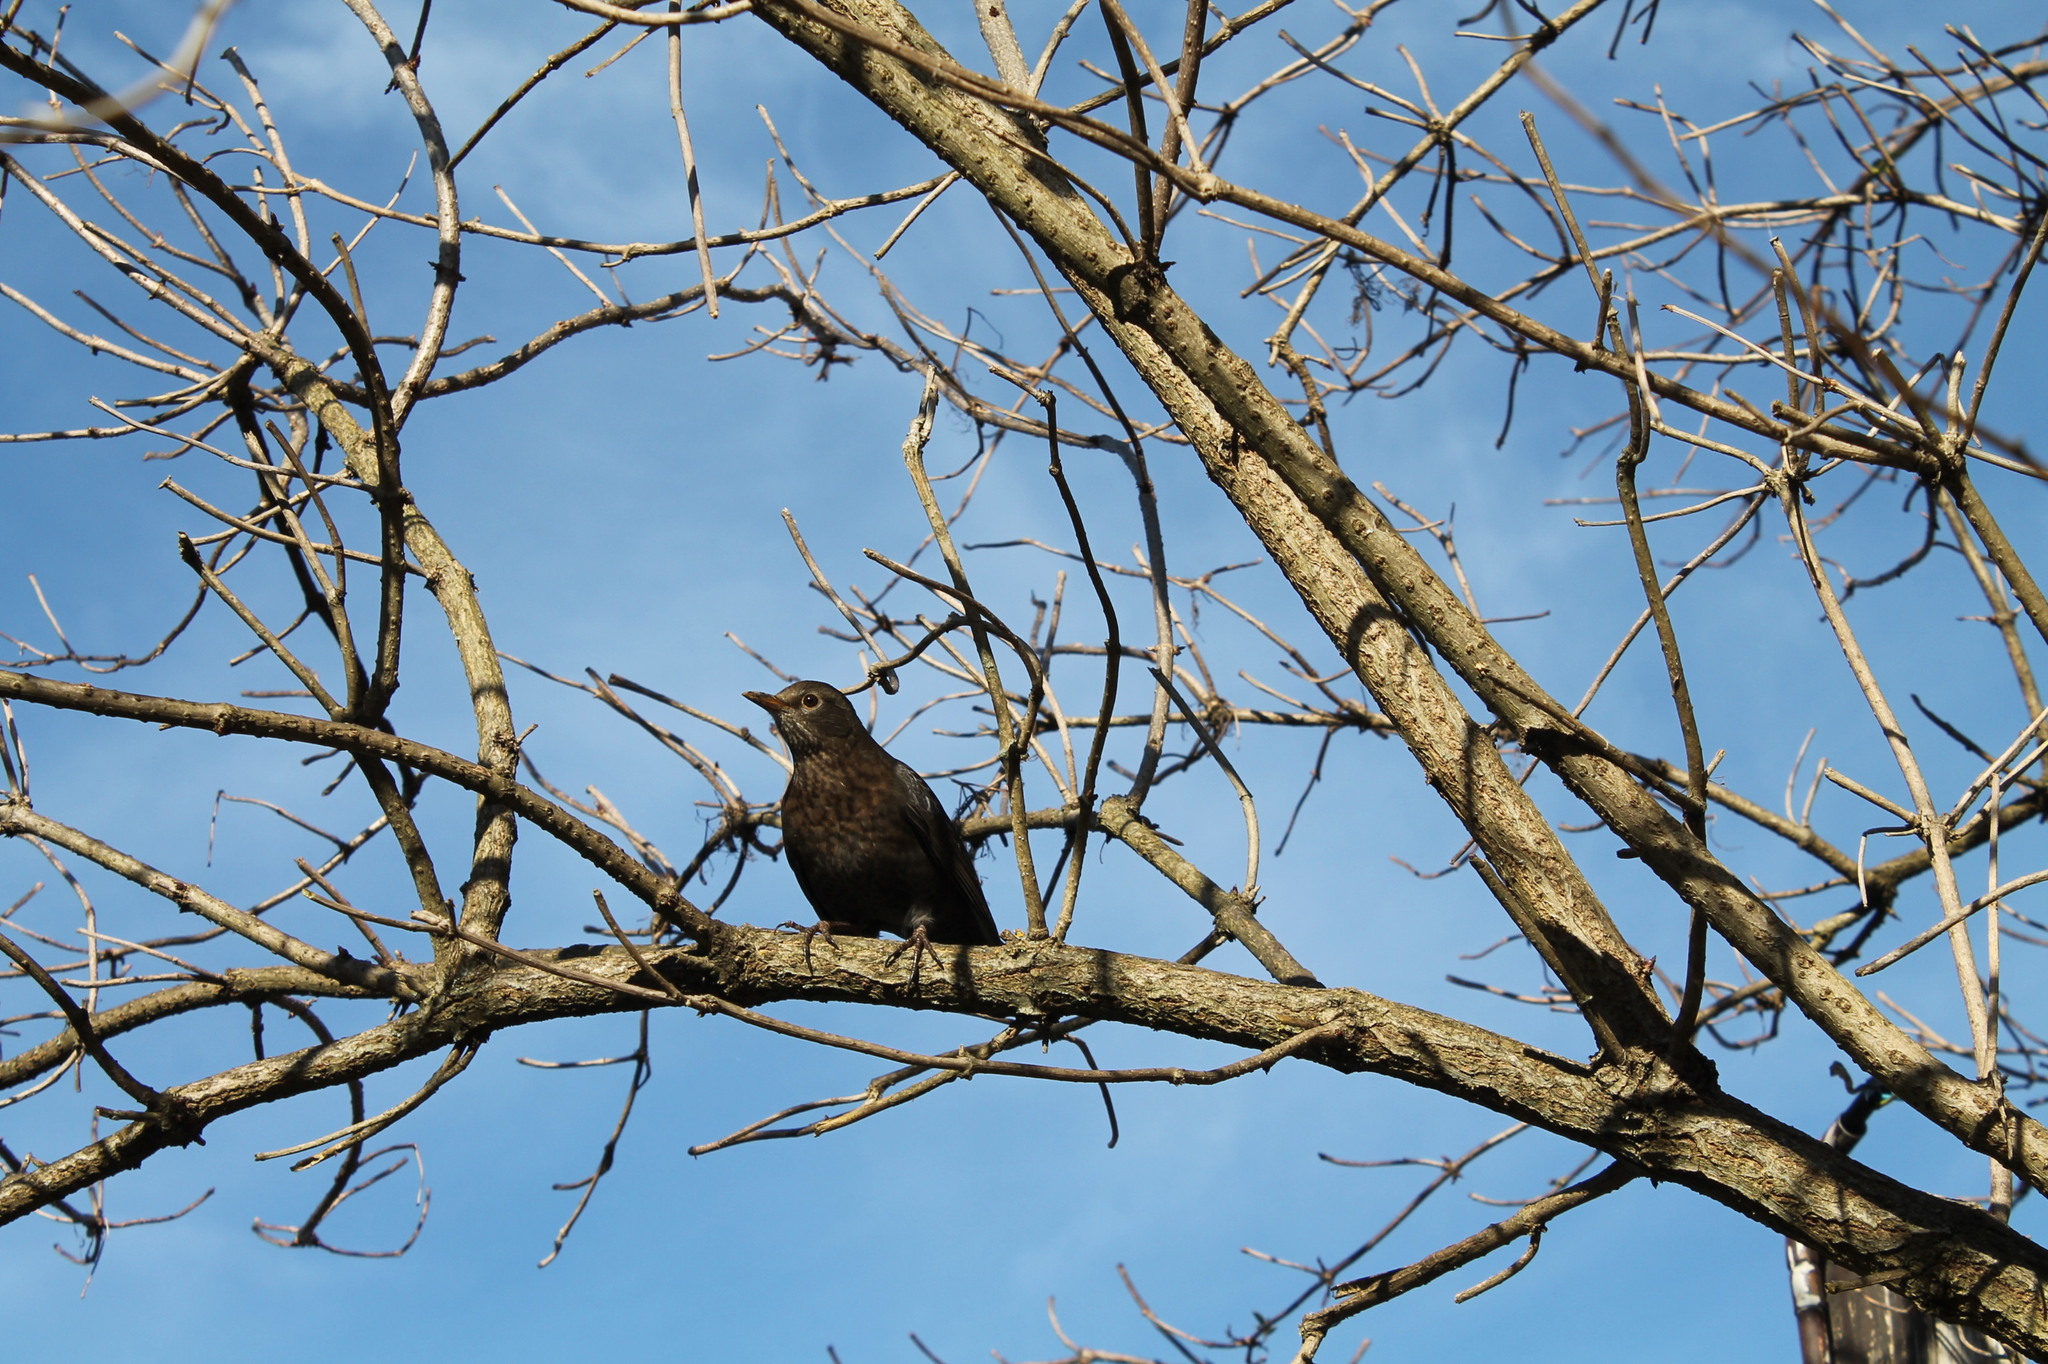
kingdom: Animalia
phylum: Chordata
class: Aves
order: Passeriformes
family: Turdidae
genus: Turdus
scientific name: Turdus merula
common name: Common blackbird
